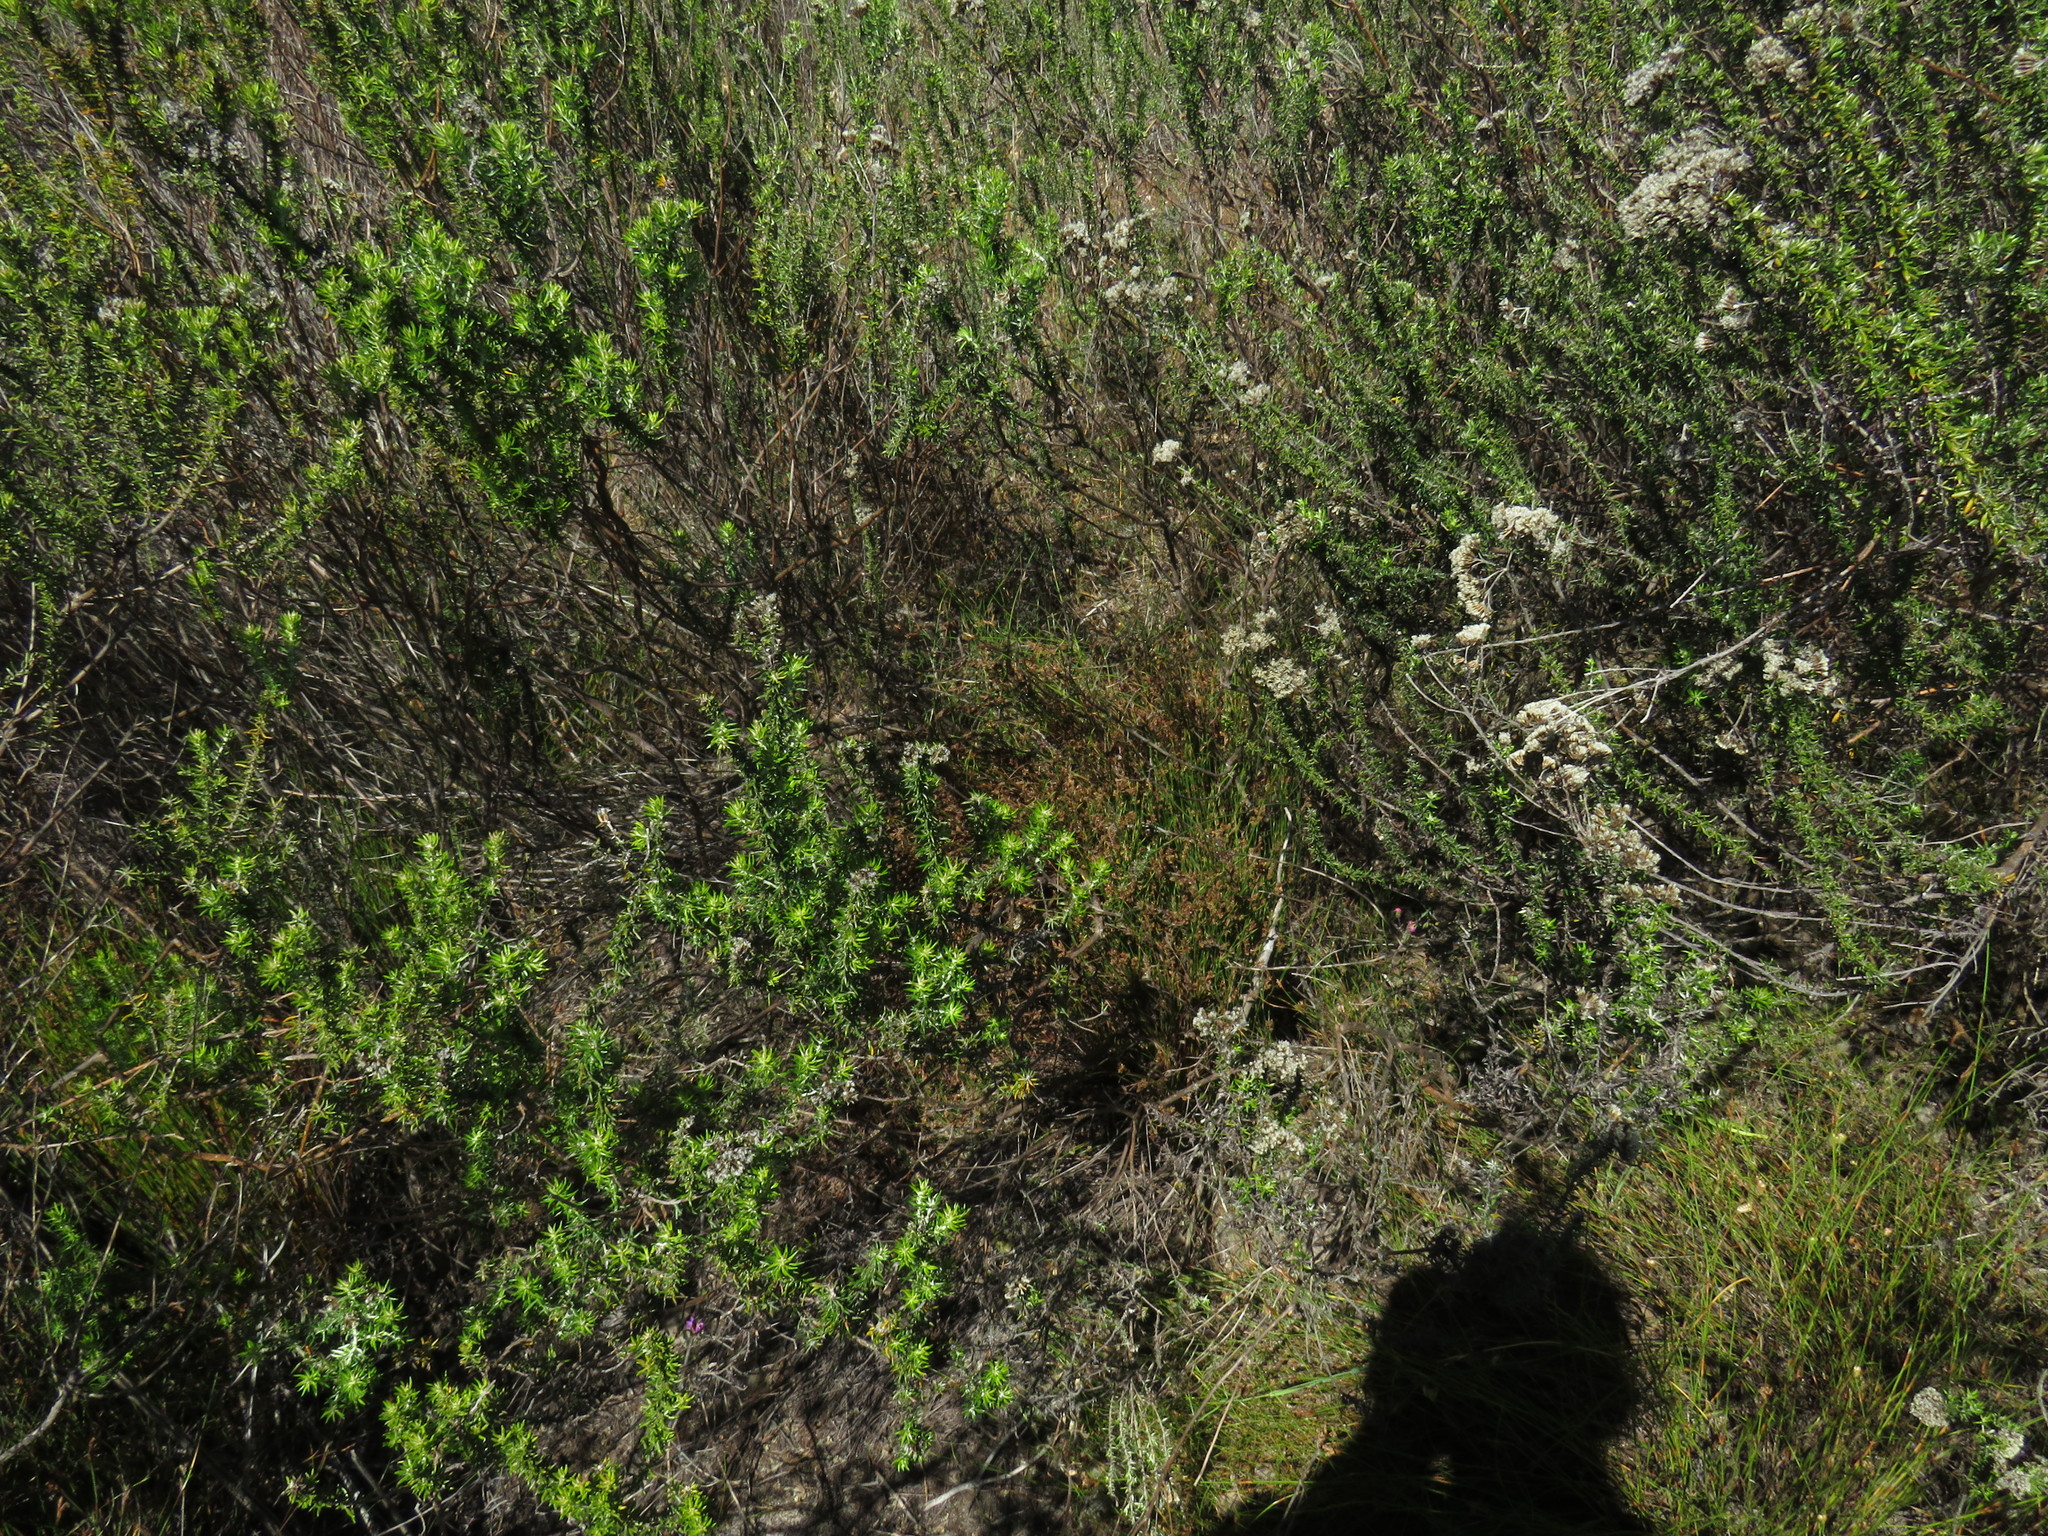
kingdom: Plantae
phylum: Tracheophyta
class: Liliopsida
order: Poales
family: Restionaceae
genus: Mastersiella
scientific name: Mastersiella digitata
